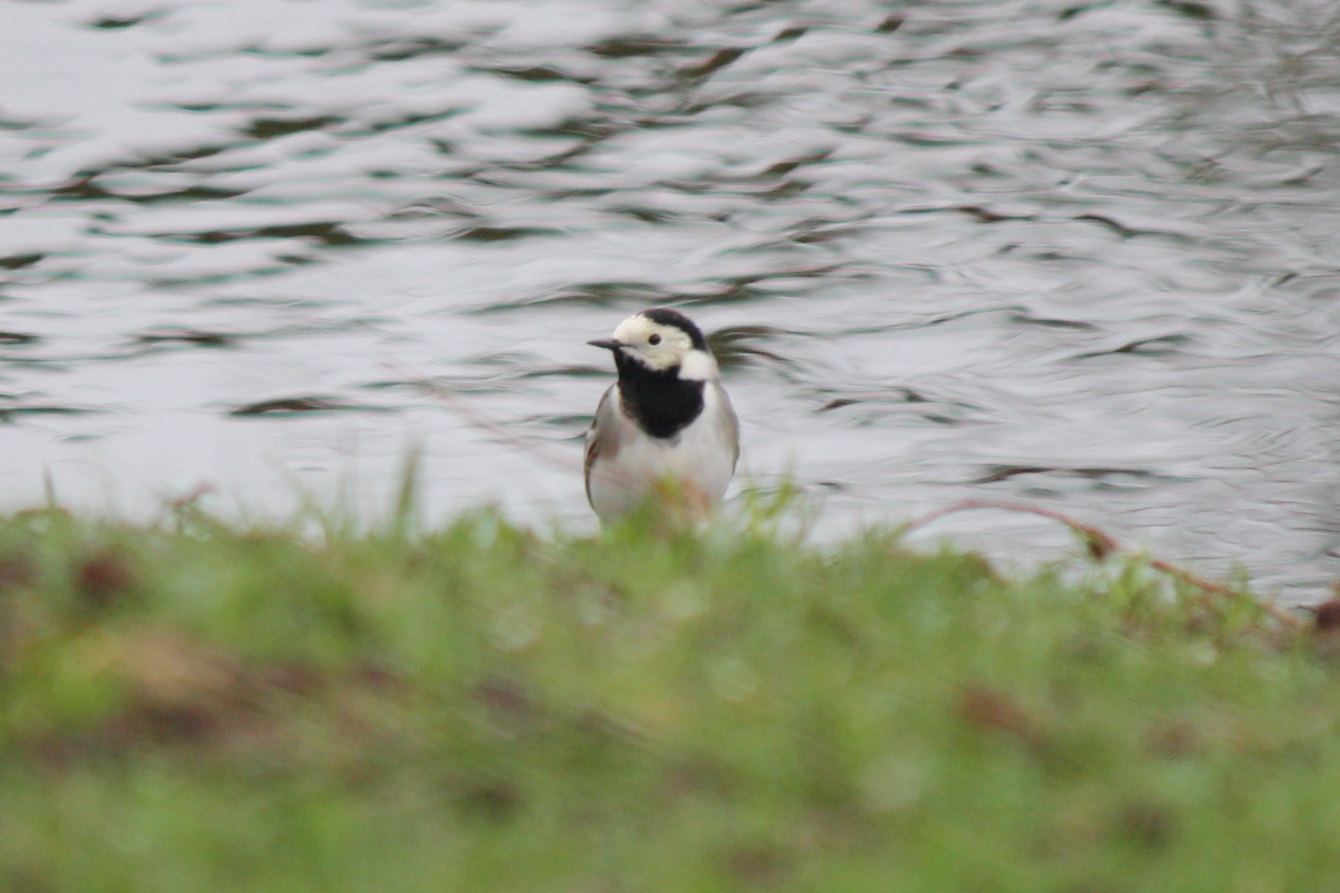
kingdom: Animalia
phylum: Chordata
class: Aves
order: Passeriformes
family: Motacillidae
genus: Motacilla
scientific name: Motacilla alba
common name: White wagtail
